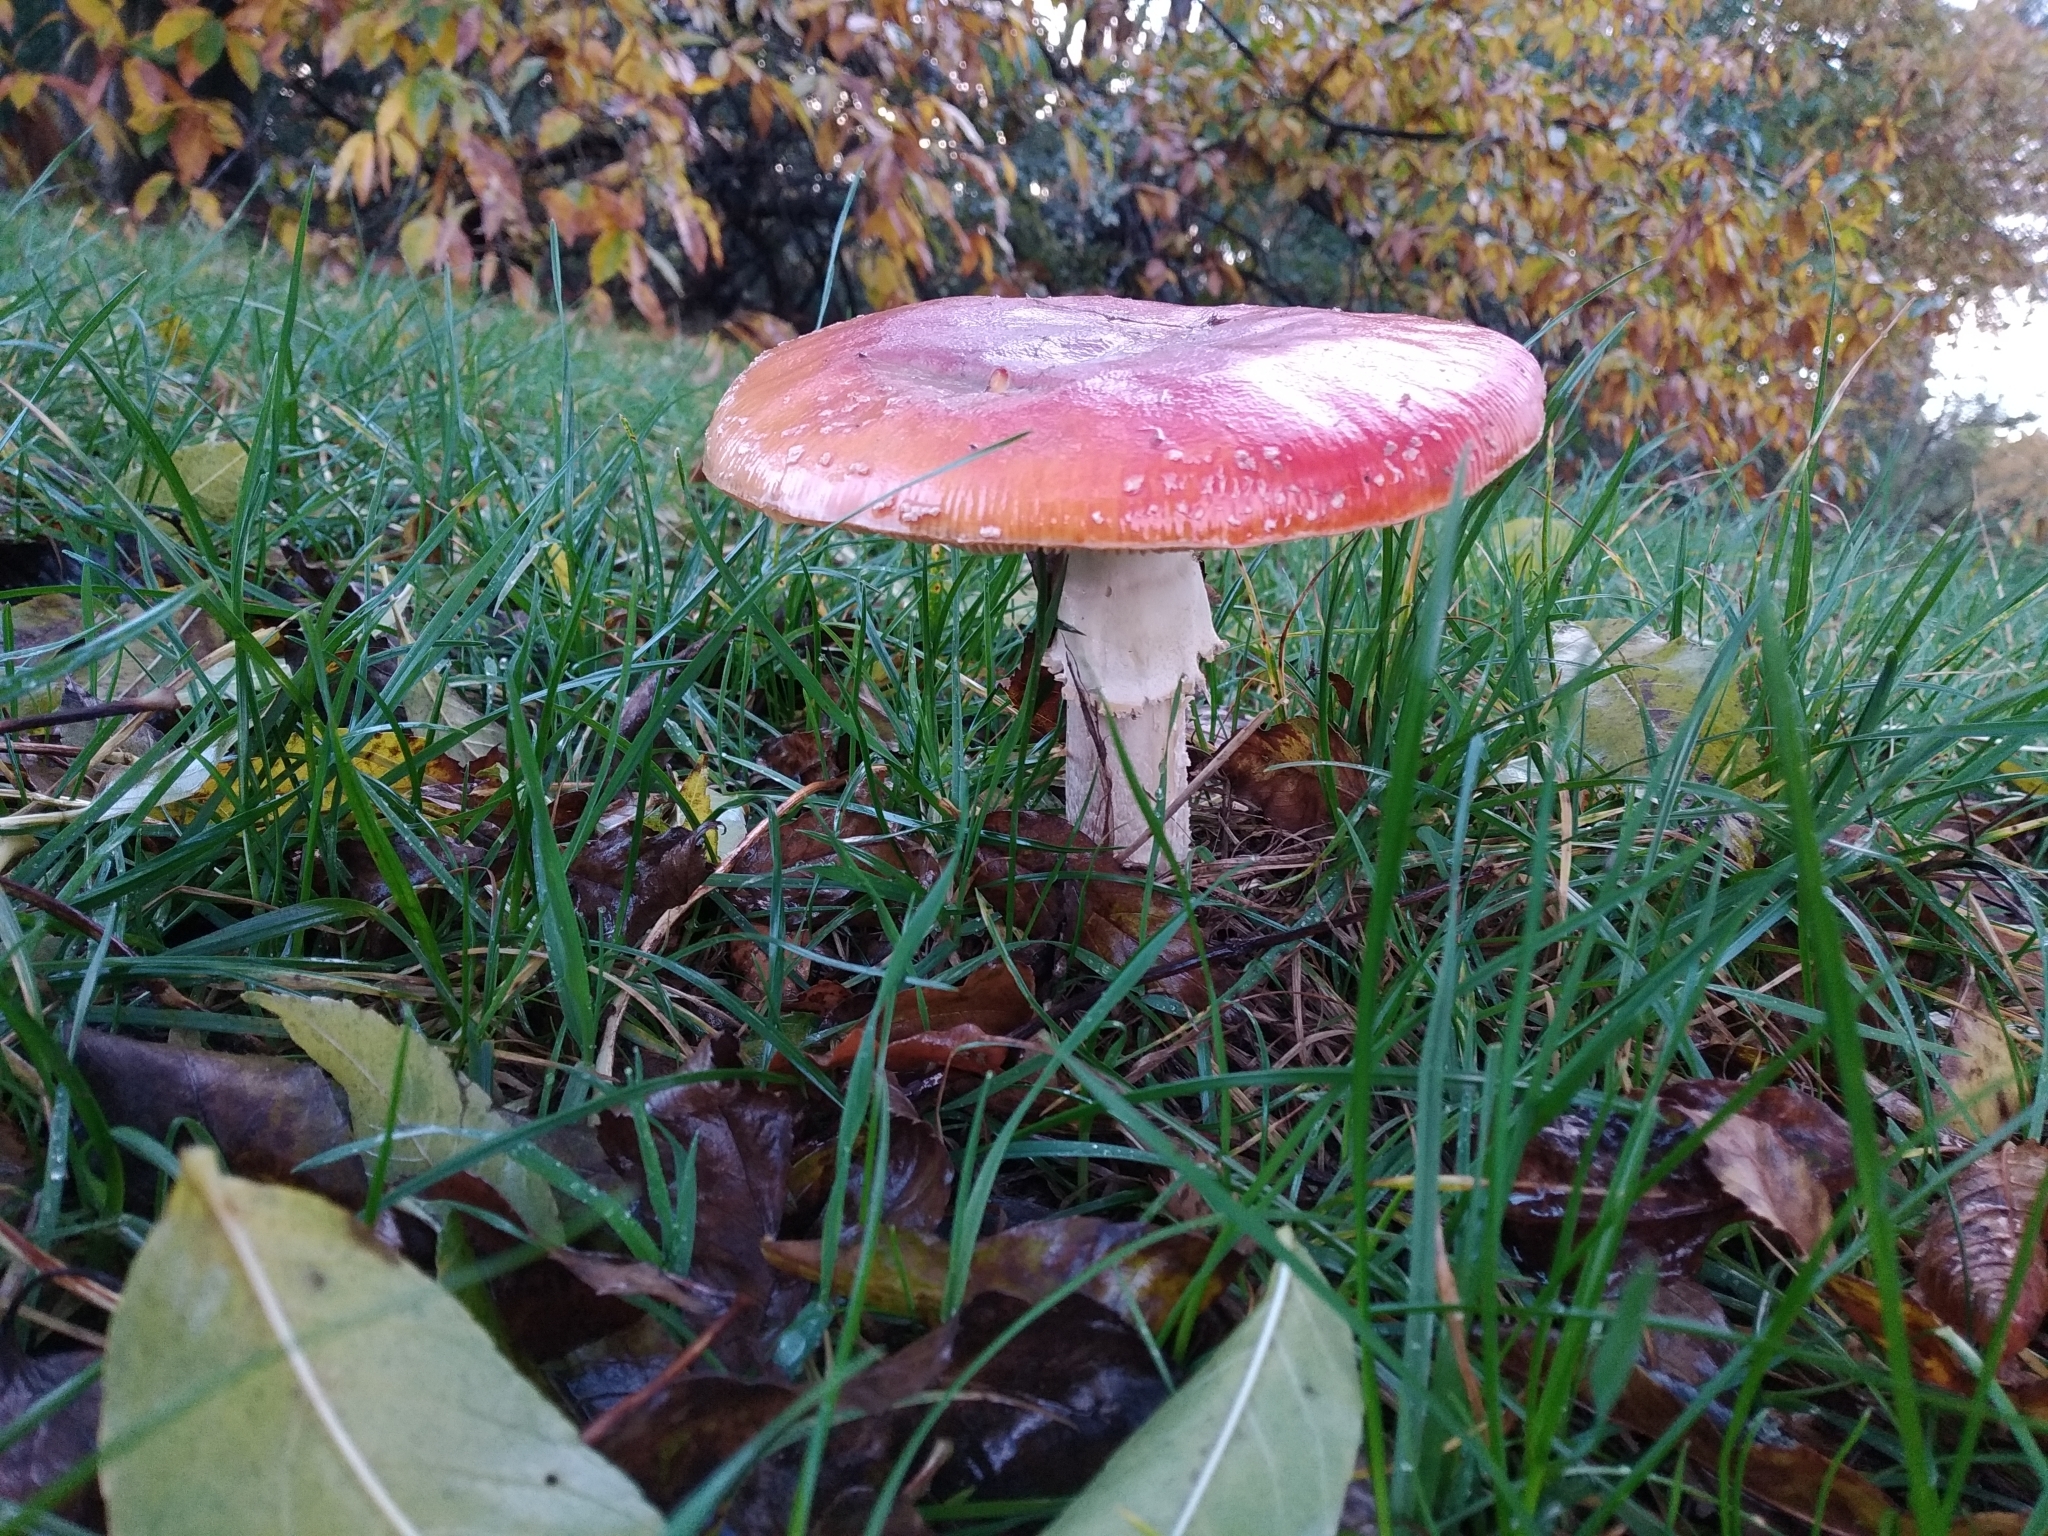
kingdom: Fungi
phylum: Basidiomycota
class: Agaricomycetes
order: Agaricales
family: Amanitaceae
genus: Amanita
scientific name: Amanita muscaria
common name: Fly agaric
